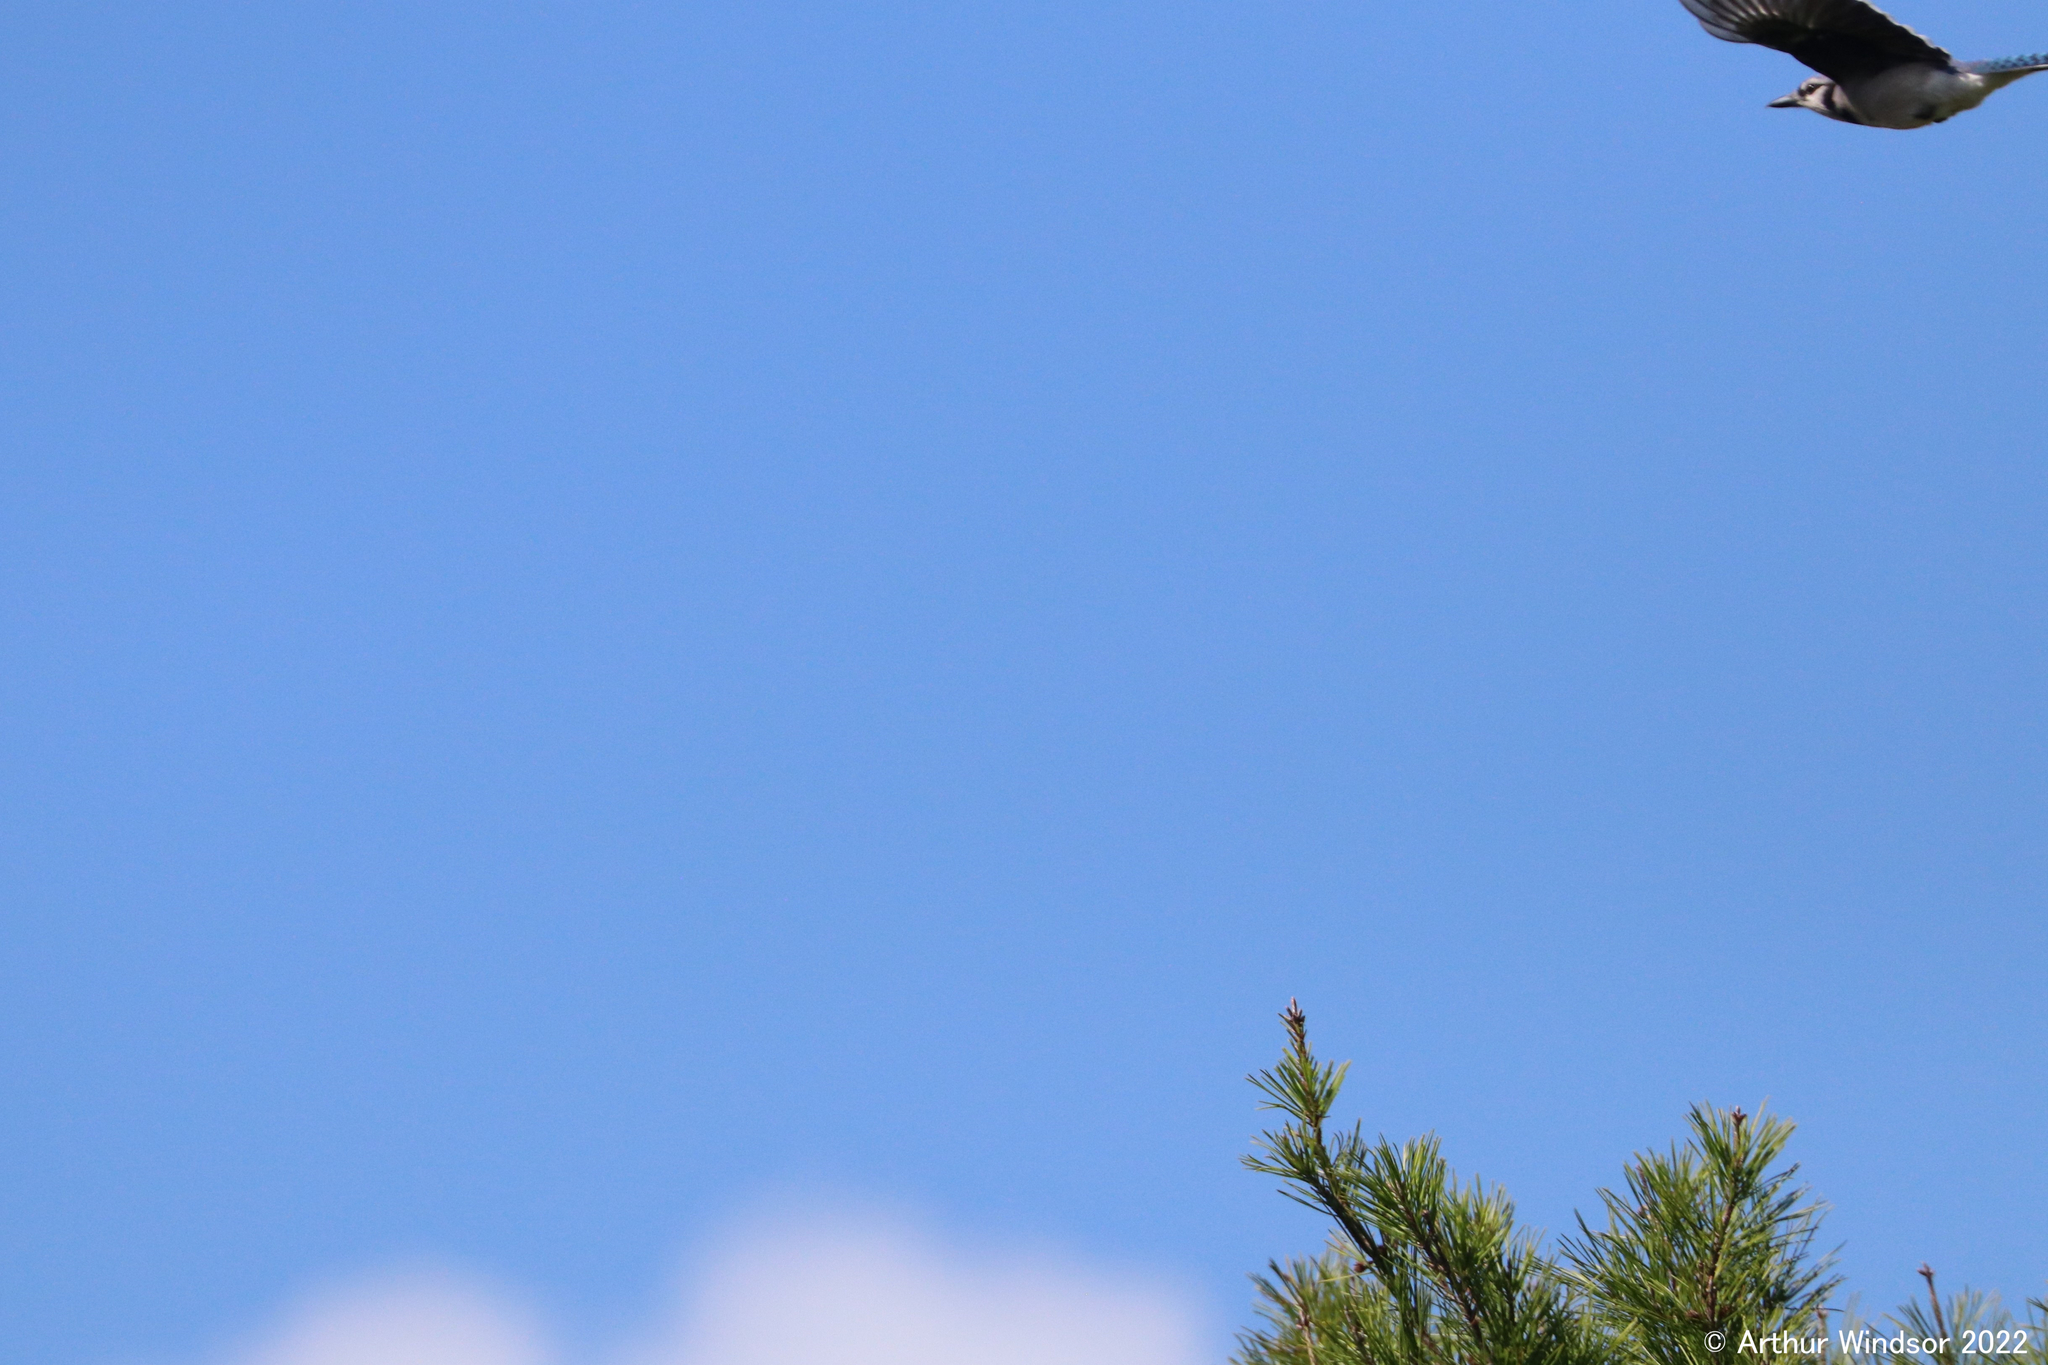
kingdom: Animalia
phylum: Chordata
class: Aves
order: Passeriformes
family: Corvidae
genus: Cyanocitta
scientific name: Cyanocitta cristata
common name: Blue jay
